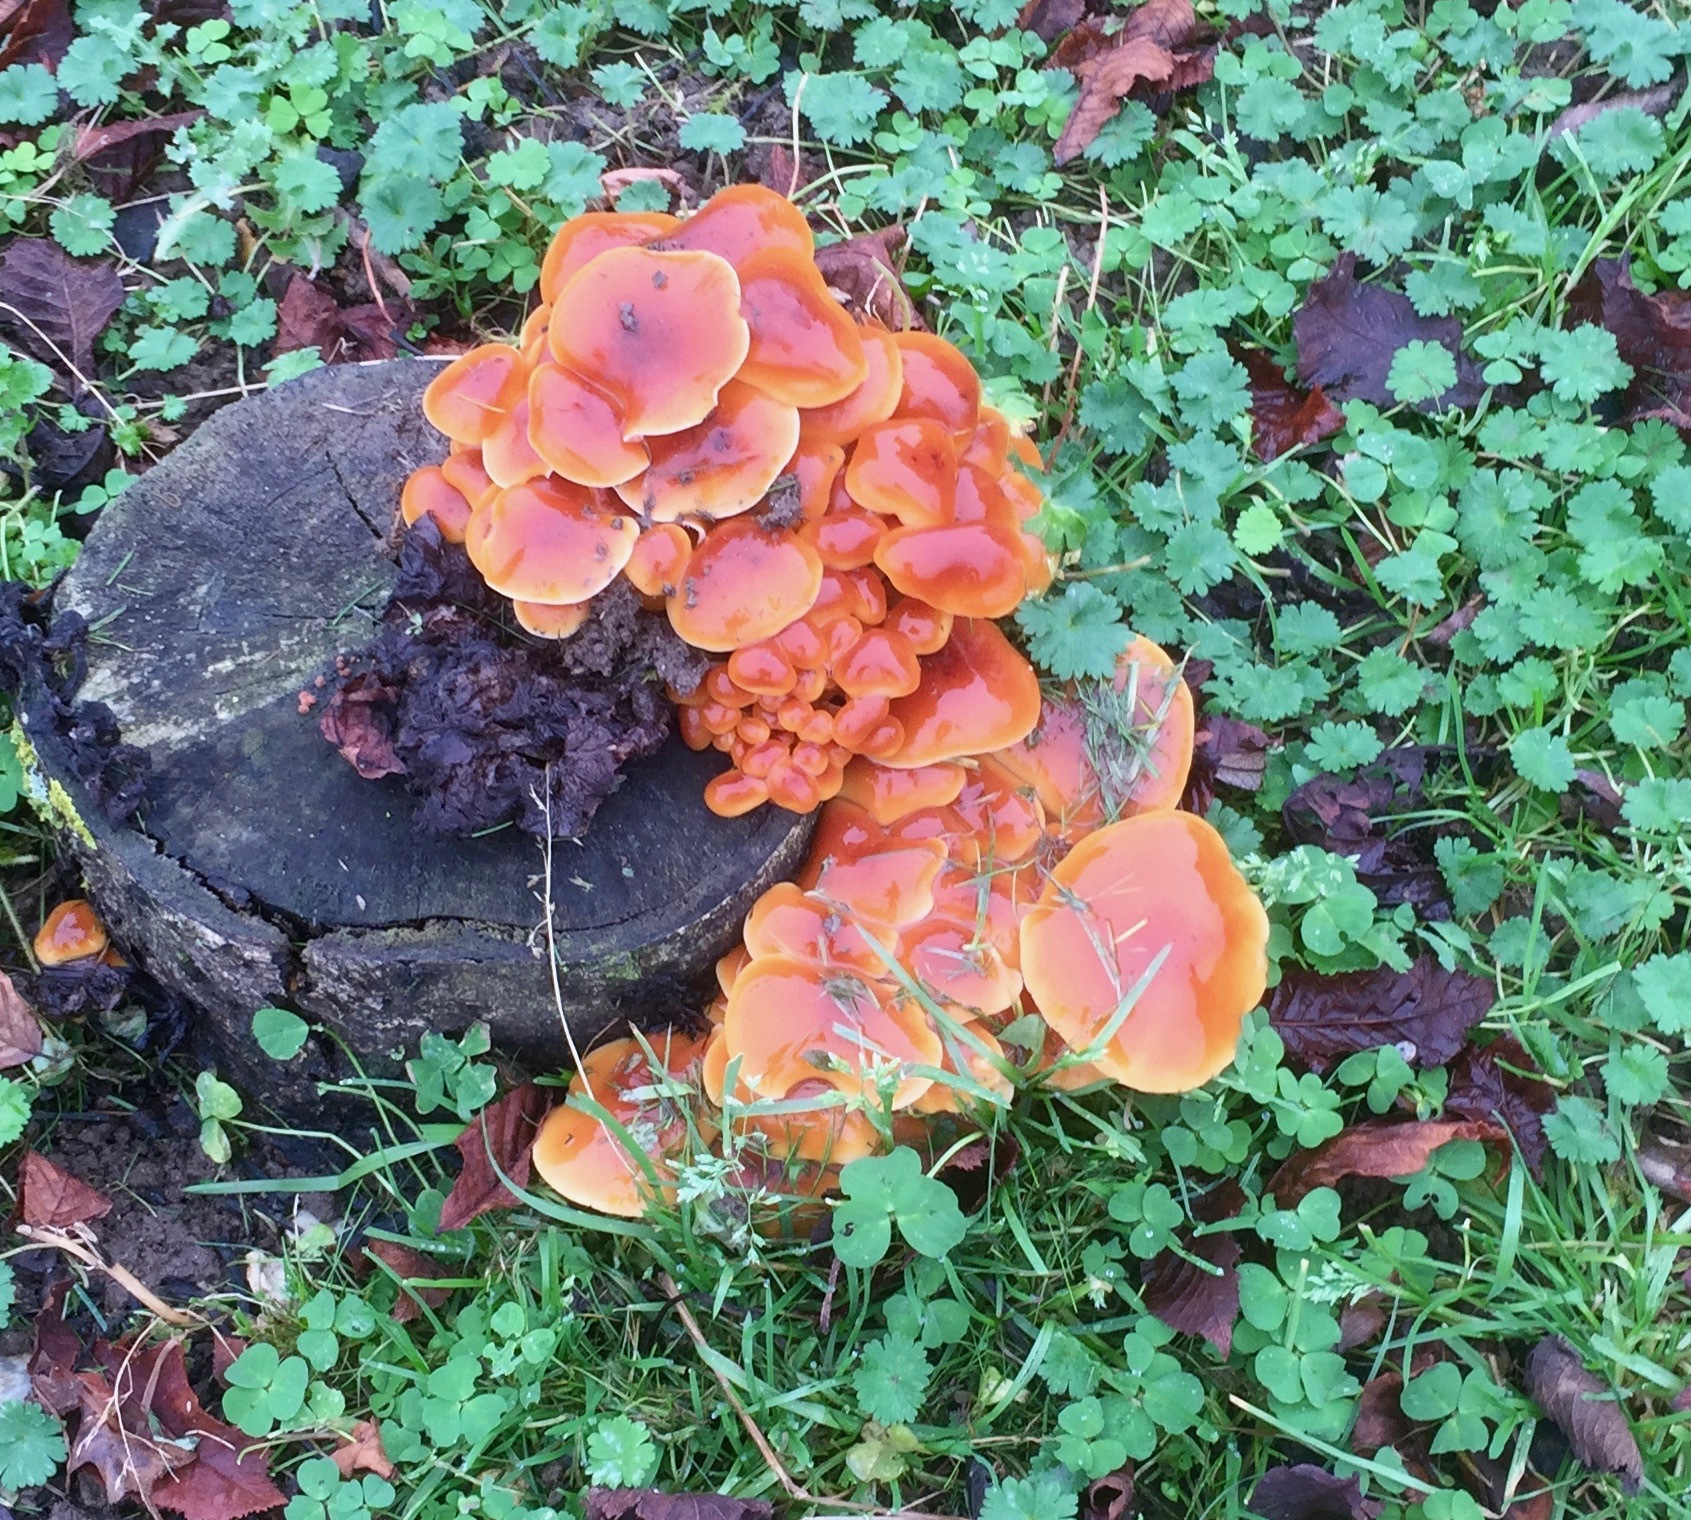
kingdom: Fungi
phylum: Basidiomycota
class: Agaricomycetes
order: Agaricales
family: Physalacriaceae
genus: Flammulina
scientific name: Flammulina
